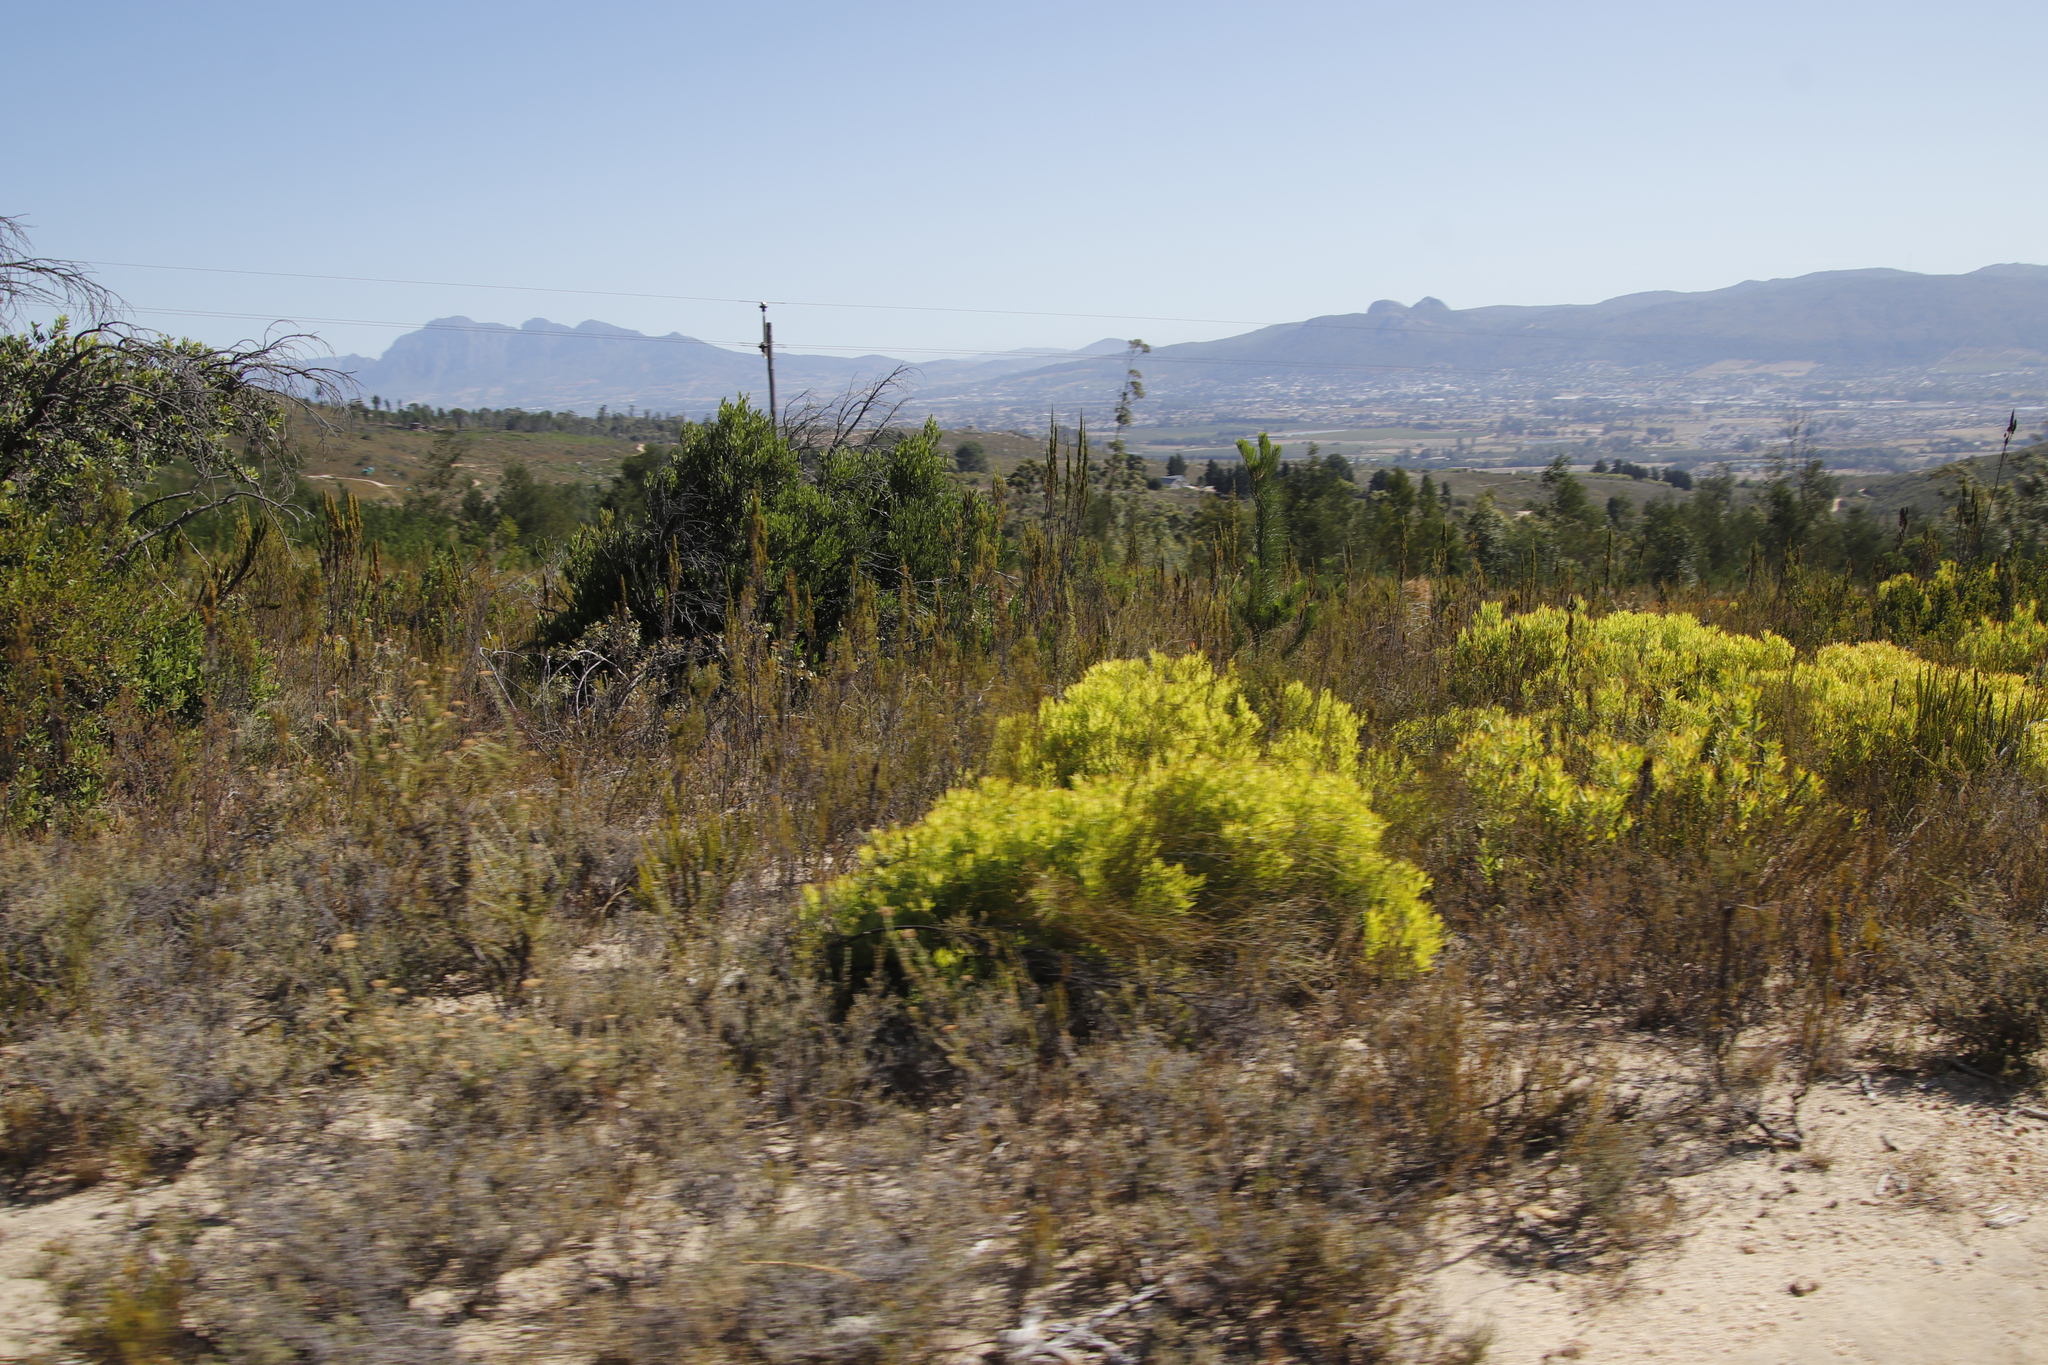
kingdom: Plantae
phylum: Tracheophyta
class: Magnoliopsida
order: Proteales
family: Proteaceae
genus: Leucadendron
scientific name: Leucadendron salignum
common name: Common sunshine conebush
